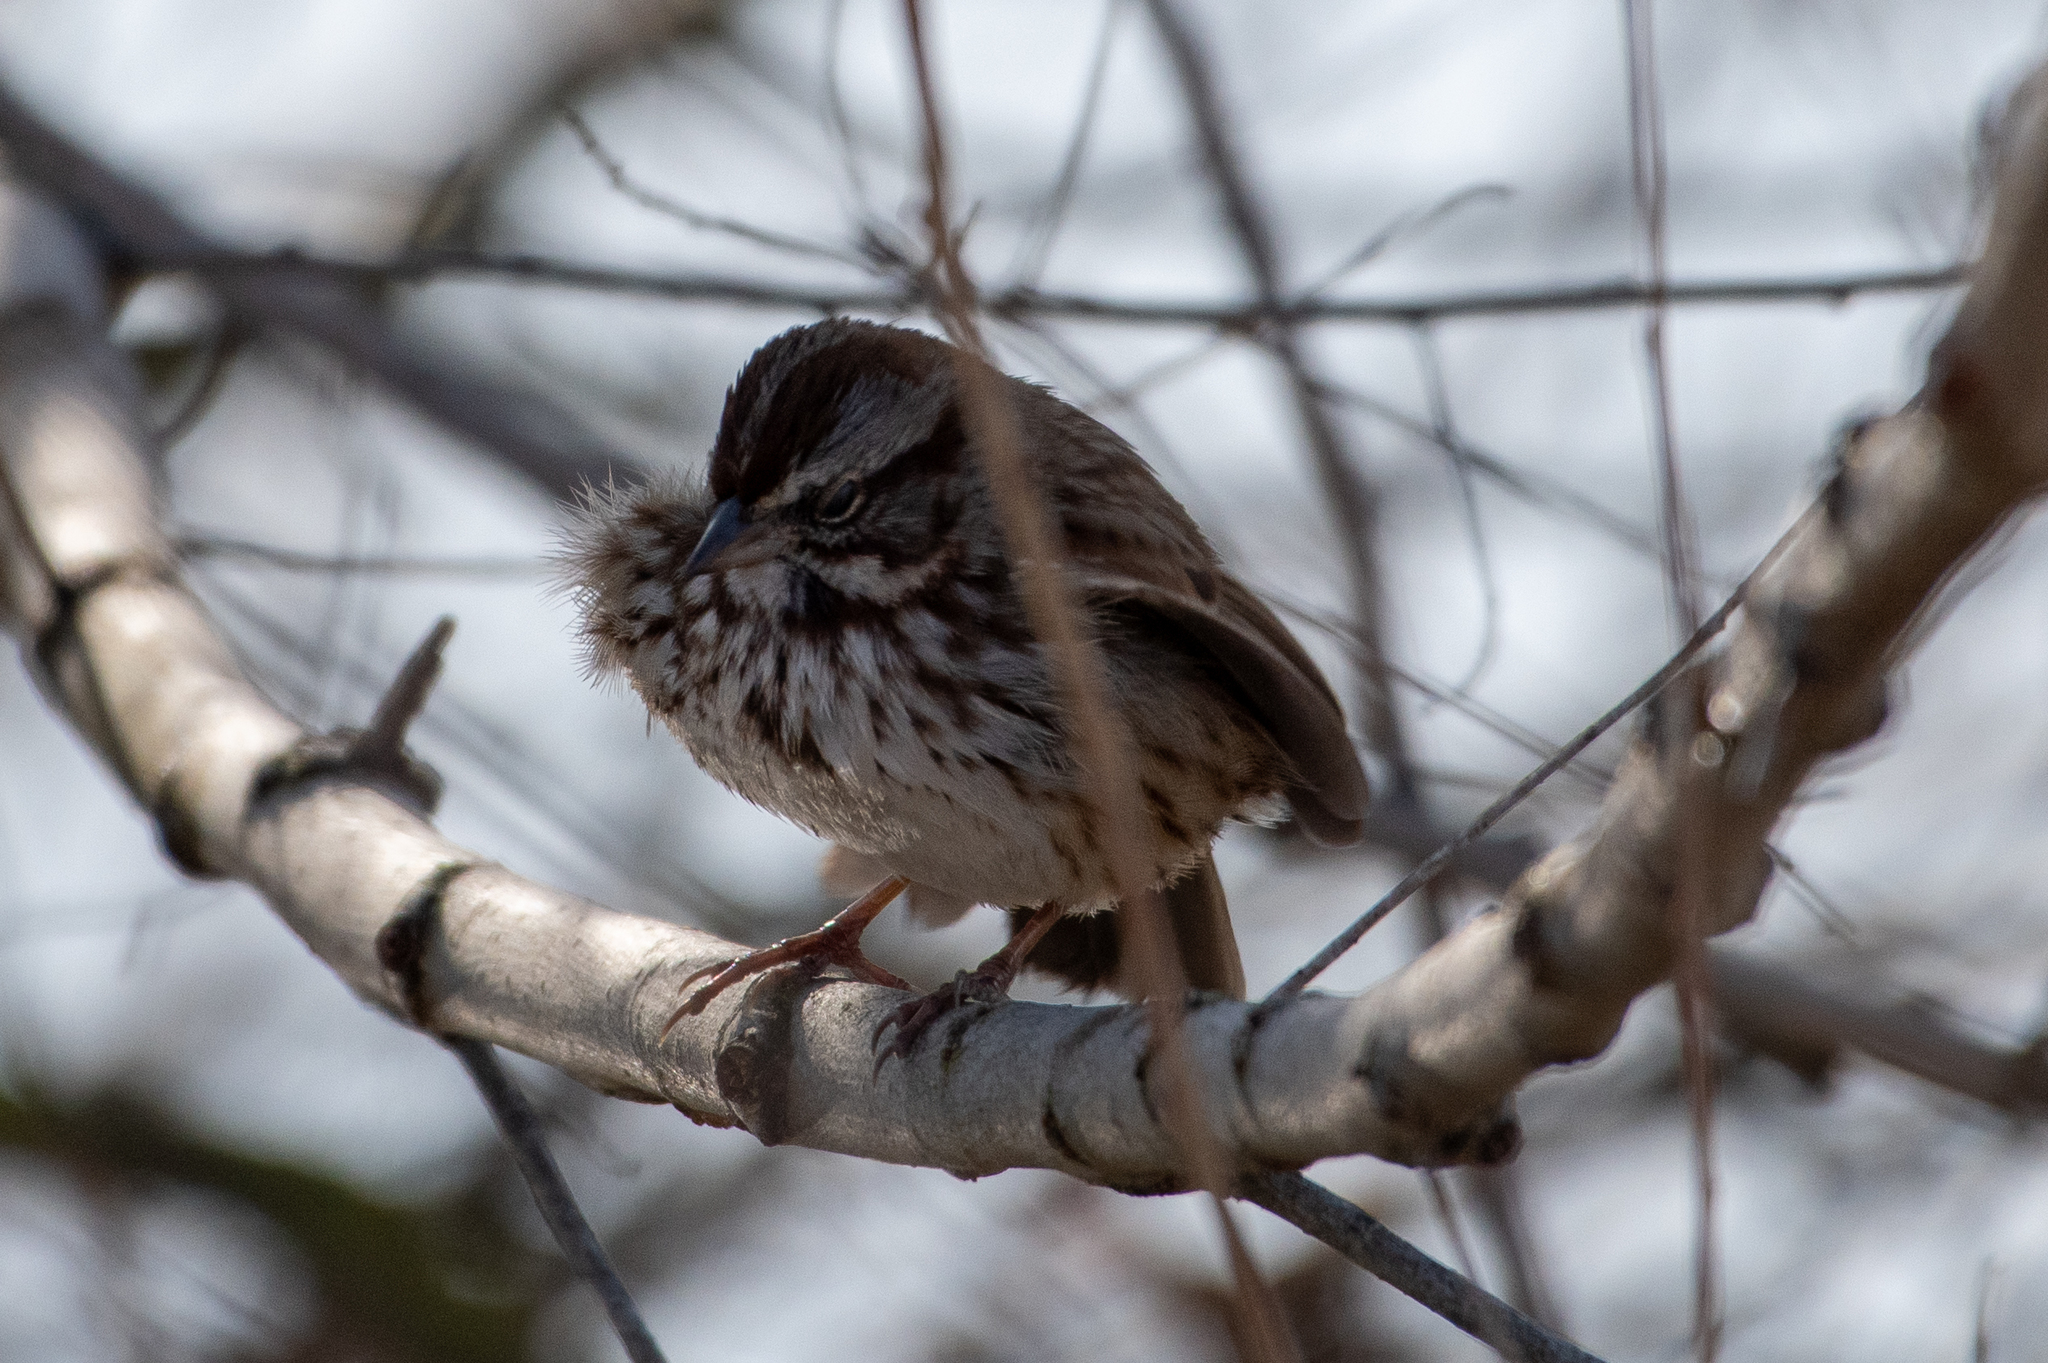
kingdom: Animalia
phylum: Chordata
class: Aves
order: Passeriformes
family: Passerellidae
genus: Melospiza
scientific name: Melospiza melodia
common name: Song sparrow
